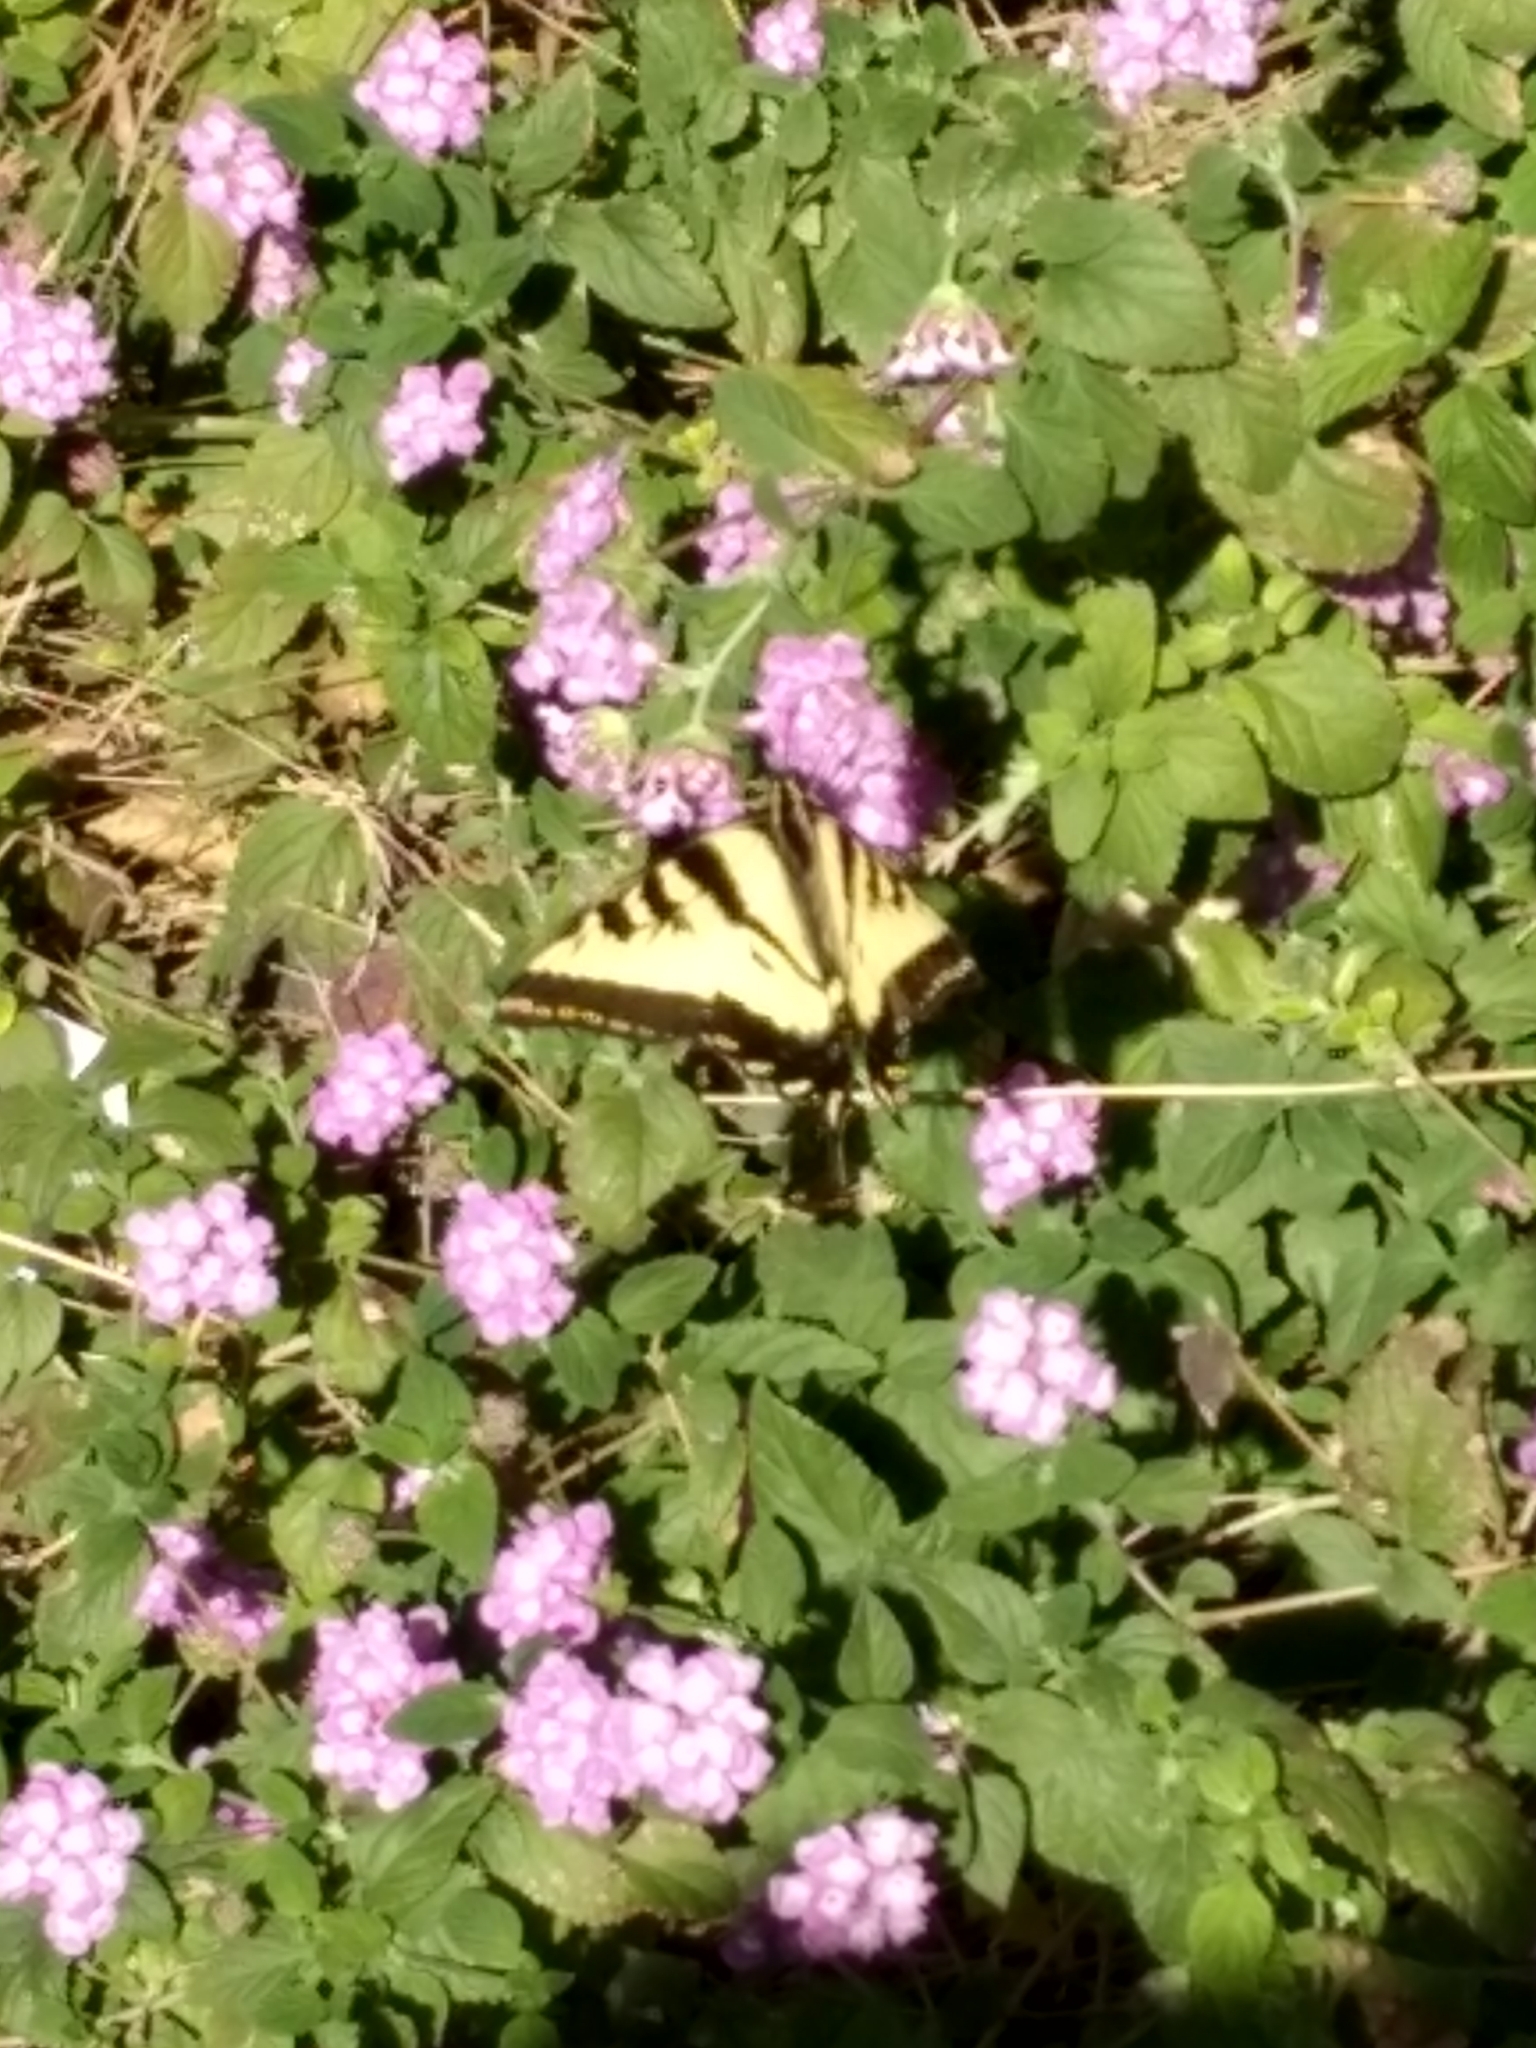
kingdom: Animalia
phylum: Arthropoda
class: Insecta
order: Lepidoptera
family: Papilionidae
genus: Papilio
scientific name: Papilio rutulus
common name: Western tiger swallowtail
